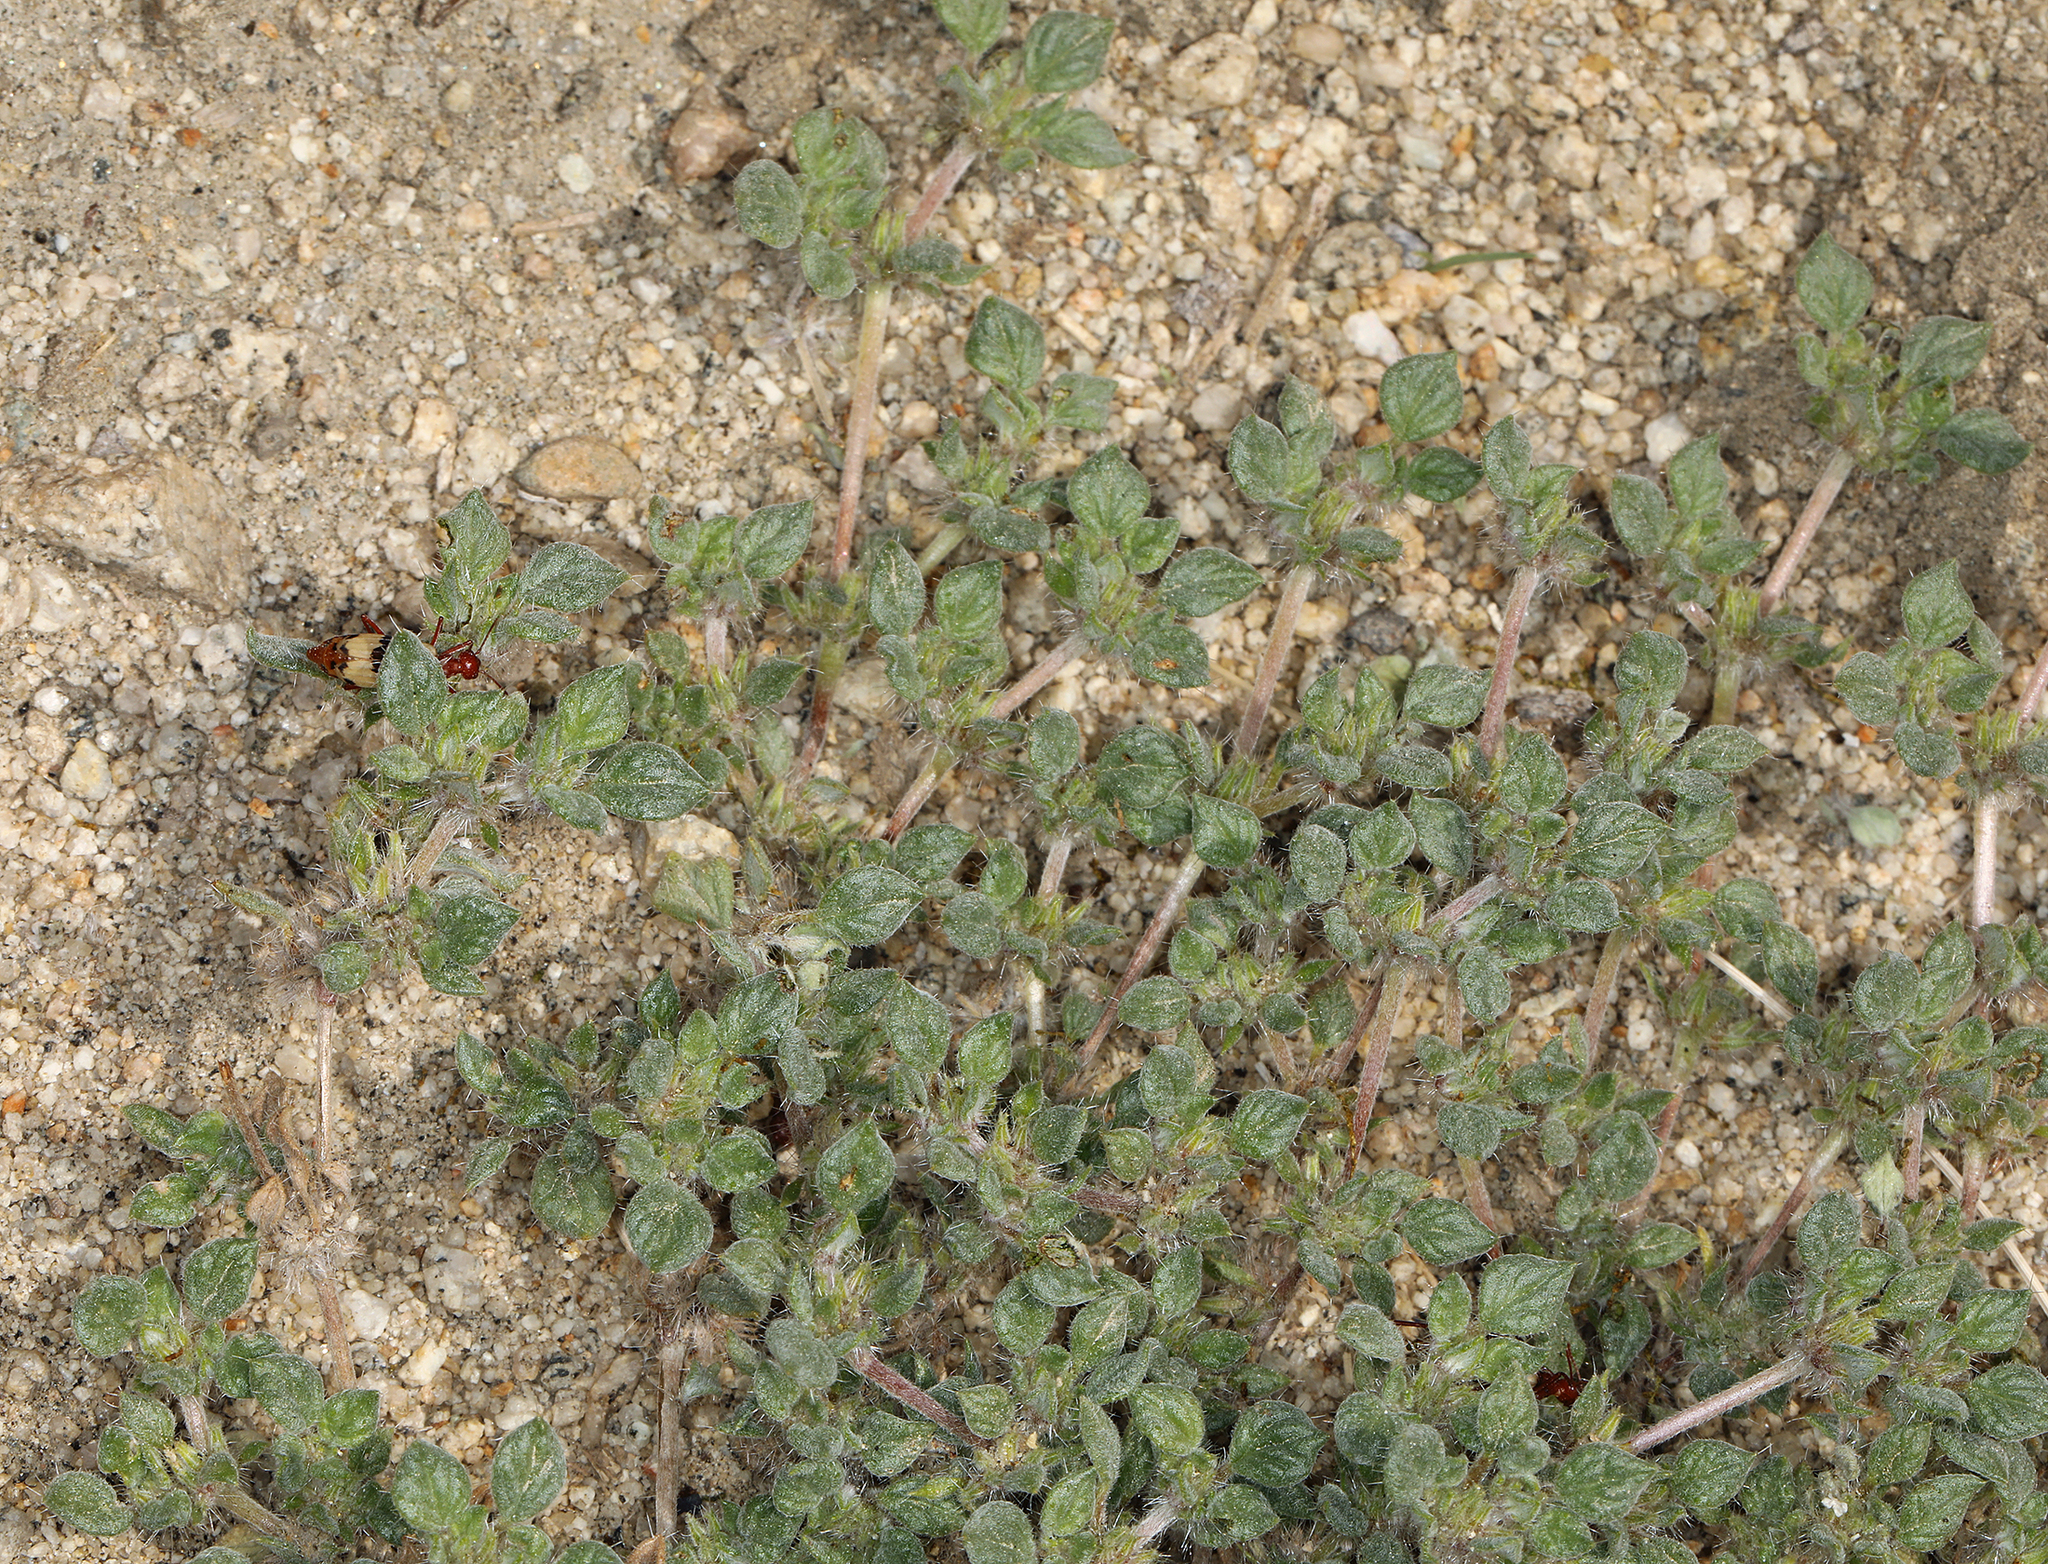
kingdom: Plantae
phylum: Tracheophyta
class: Magnoliopsida
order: Boraginales
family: Ehretiaceae
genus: Tiquilia
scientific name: Tiquilia nuttallii
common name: Rosette tiquilia
